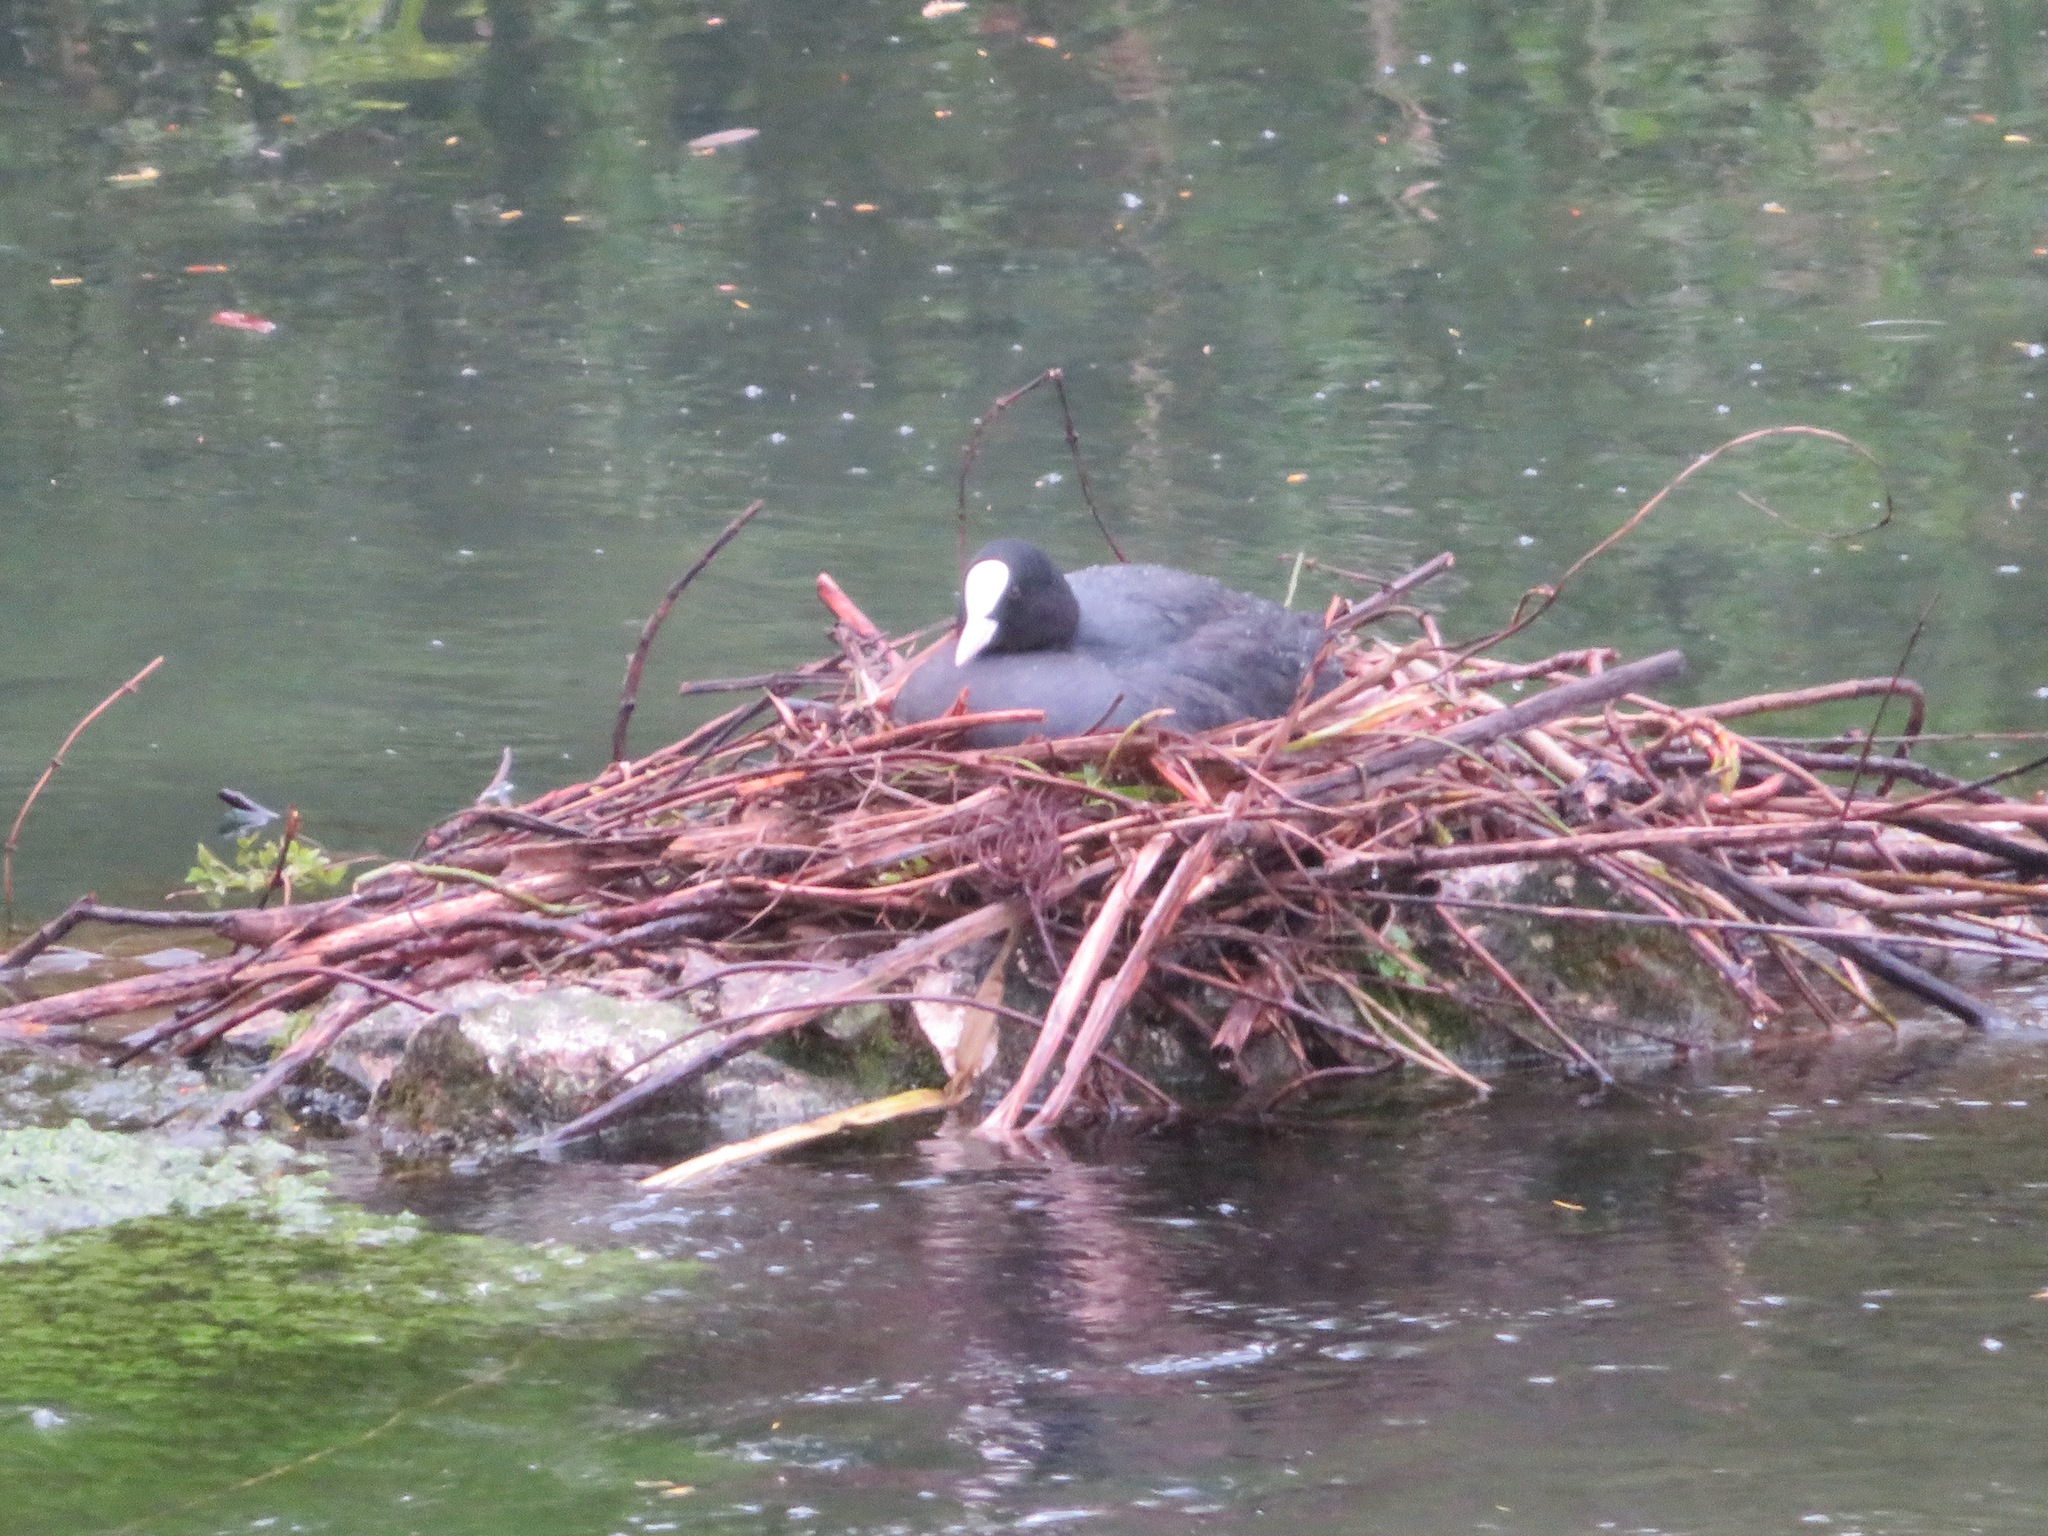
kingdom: Animalia
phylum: Chordata
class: Aves
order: Gruiformes
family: Rallidae
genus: Fulica
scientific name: Fulica atra
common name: Eurasian coot
